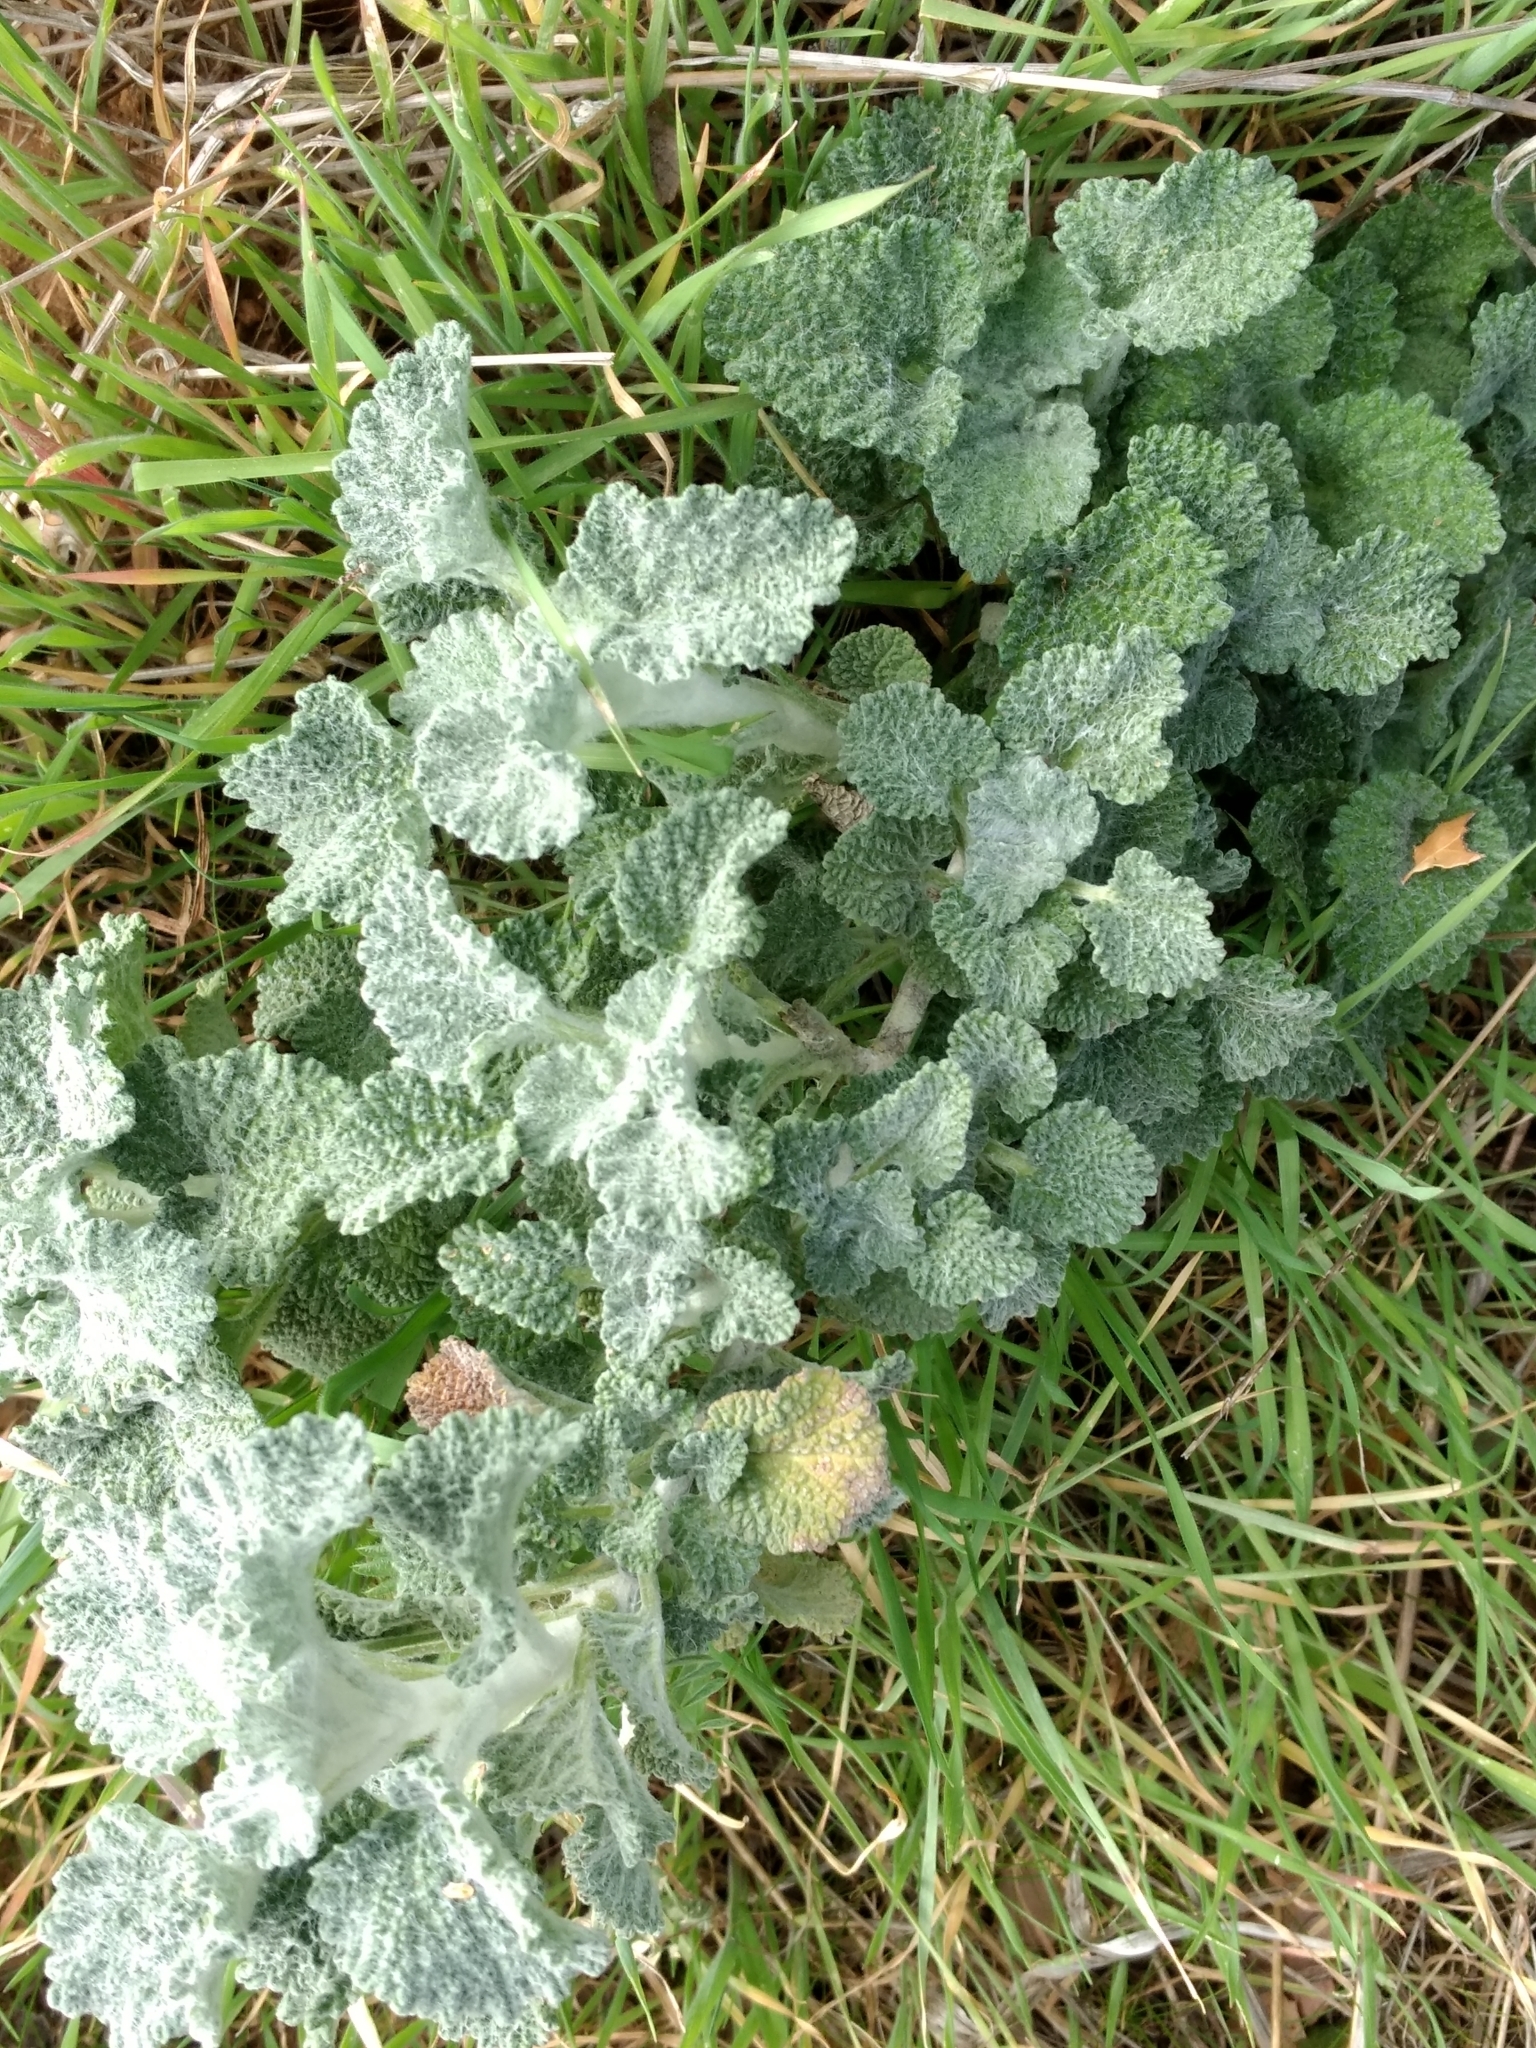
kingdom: Plantae
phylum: Tracheophyta
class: Magnoliopsida
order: Lamiales
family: Lamiaceae
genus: Marrubium
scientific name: Marrubium vulgare
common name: Horehound
